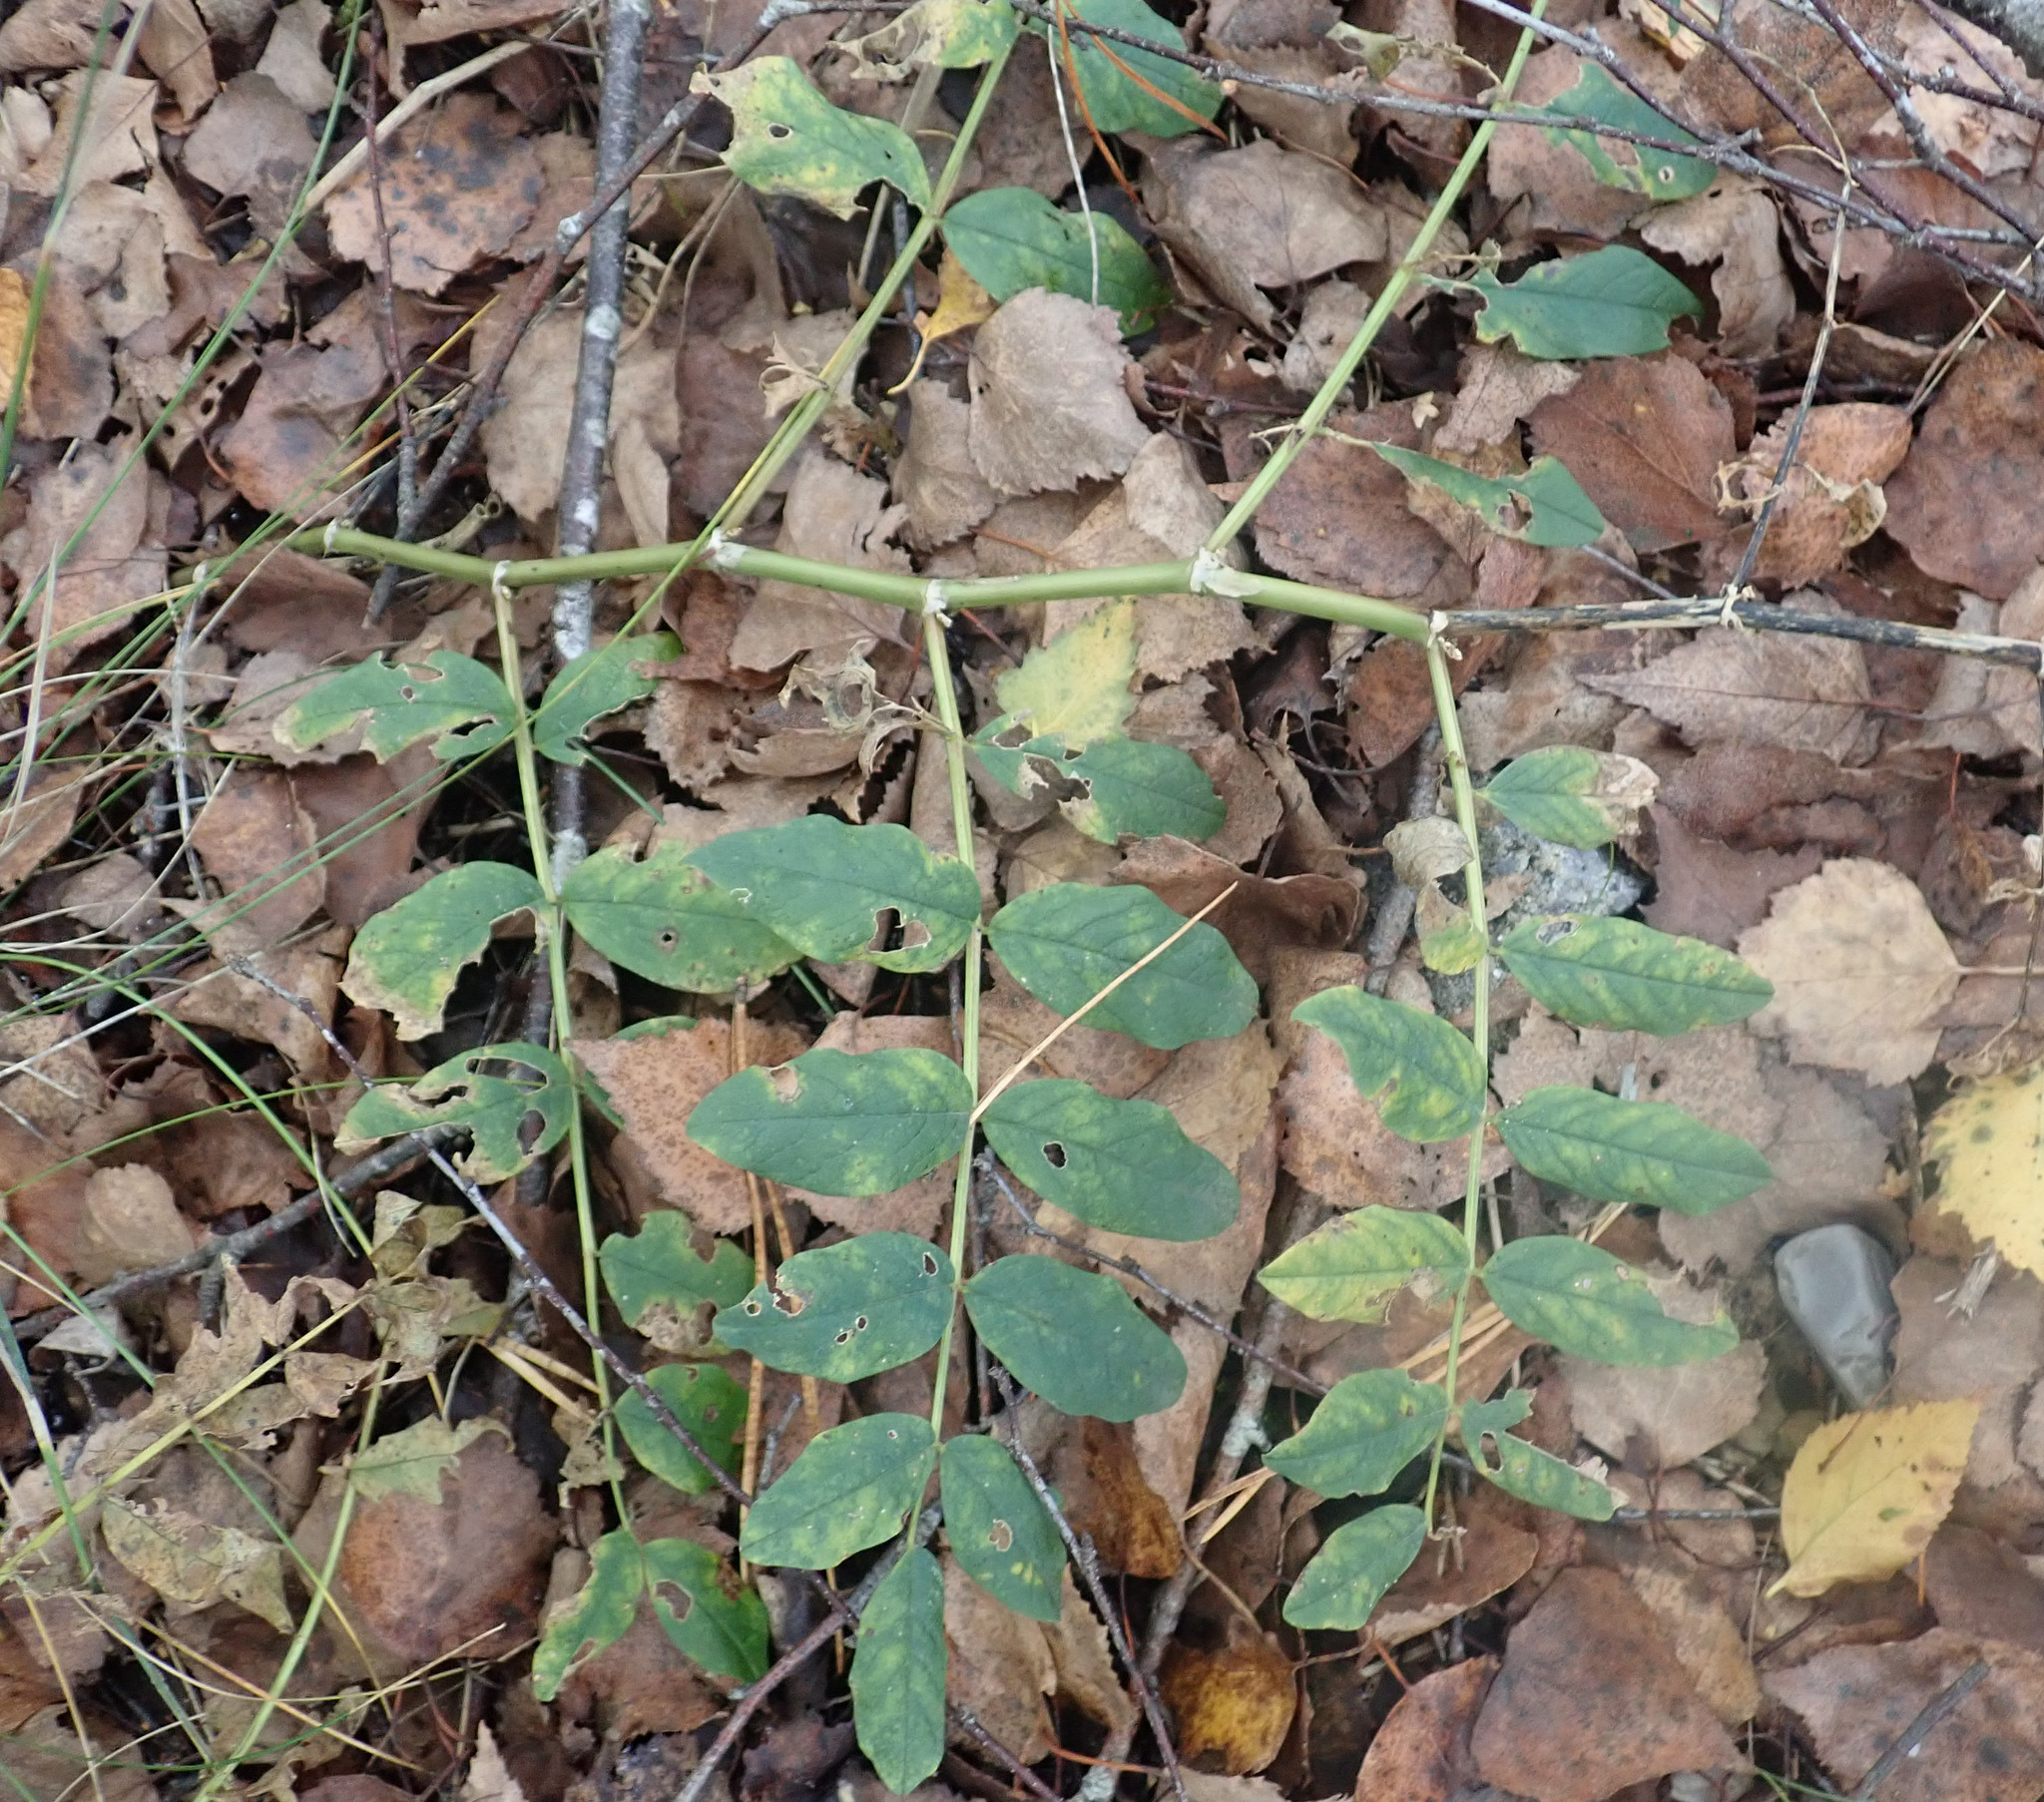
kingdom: Plantae
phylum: Tracheophyta
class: Magnoliopsida
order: Fabales
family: Fabaceae
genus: Astragalus
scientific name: Astragalus glycyphyllos
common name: Wild liquorice
